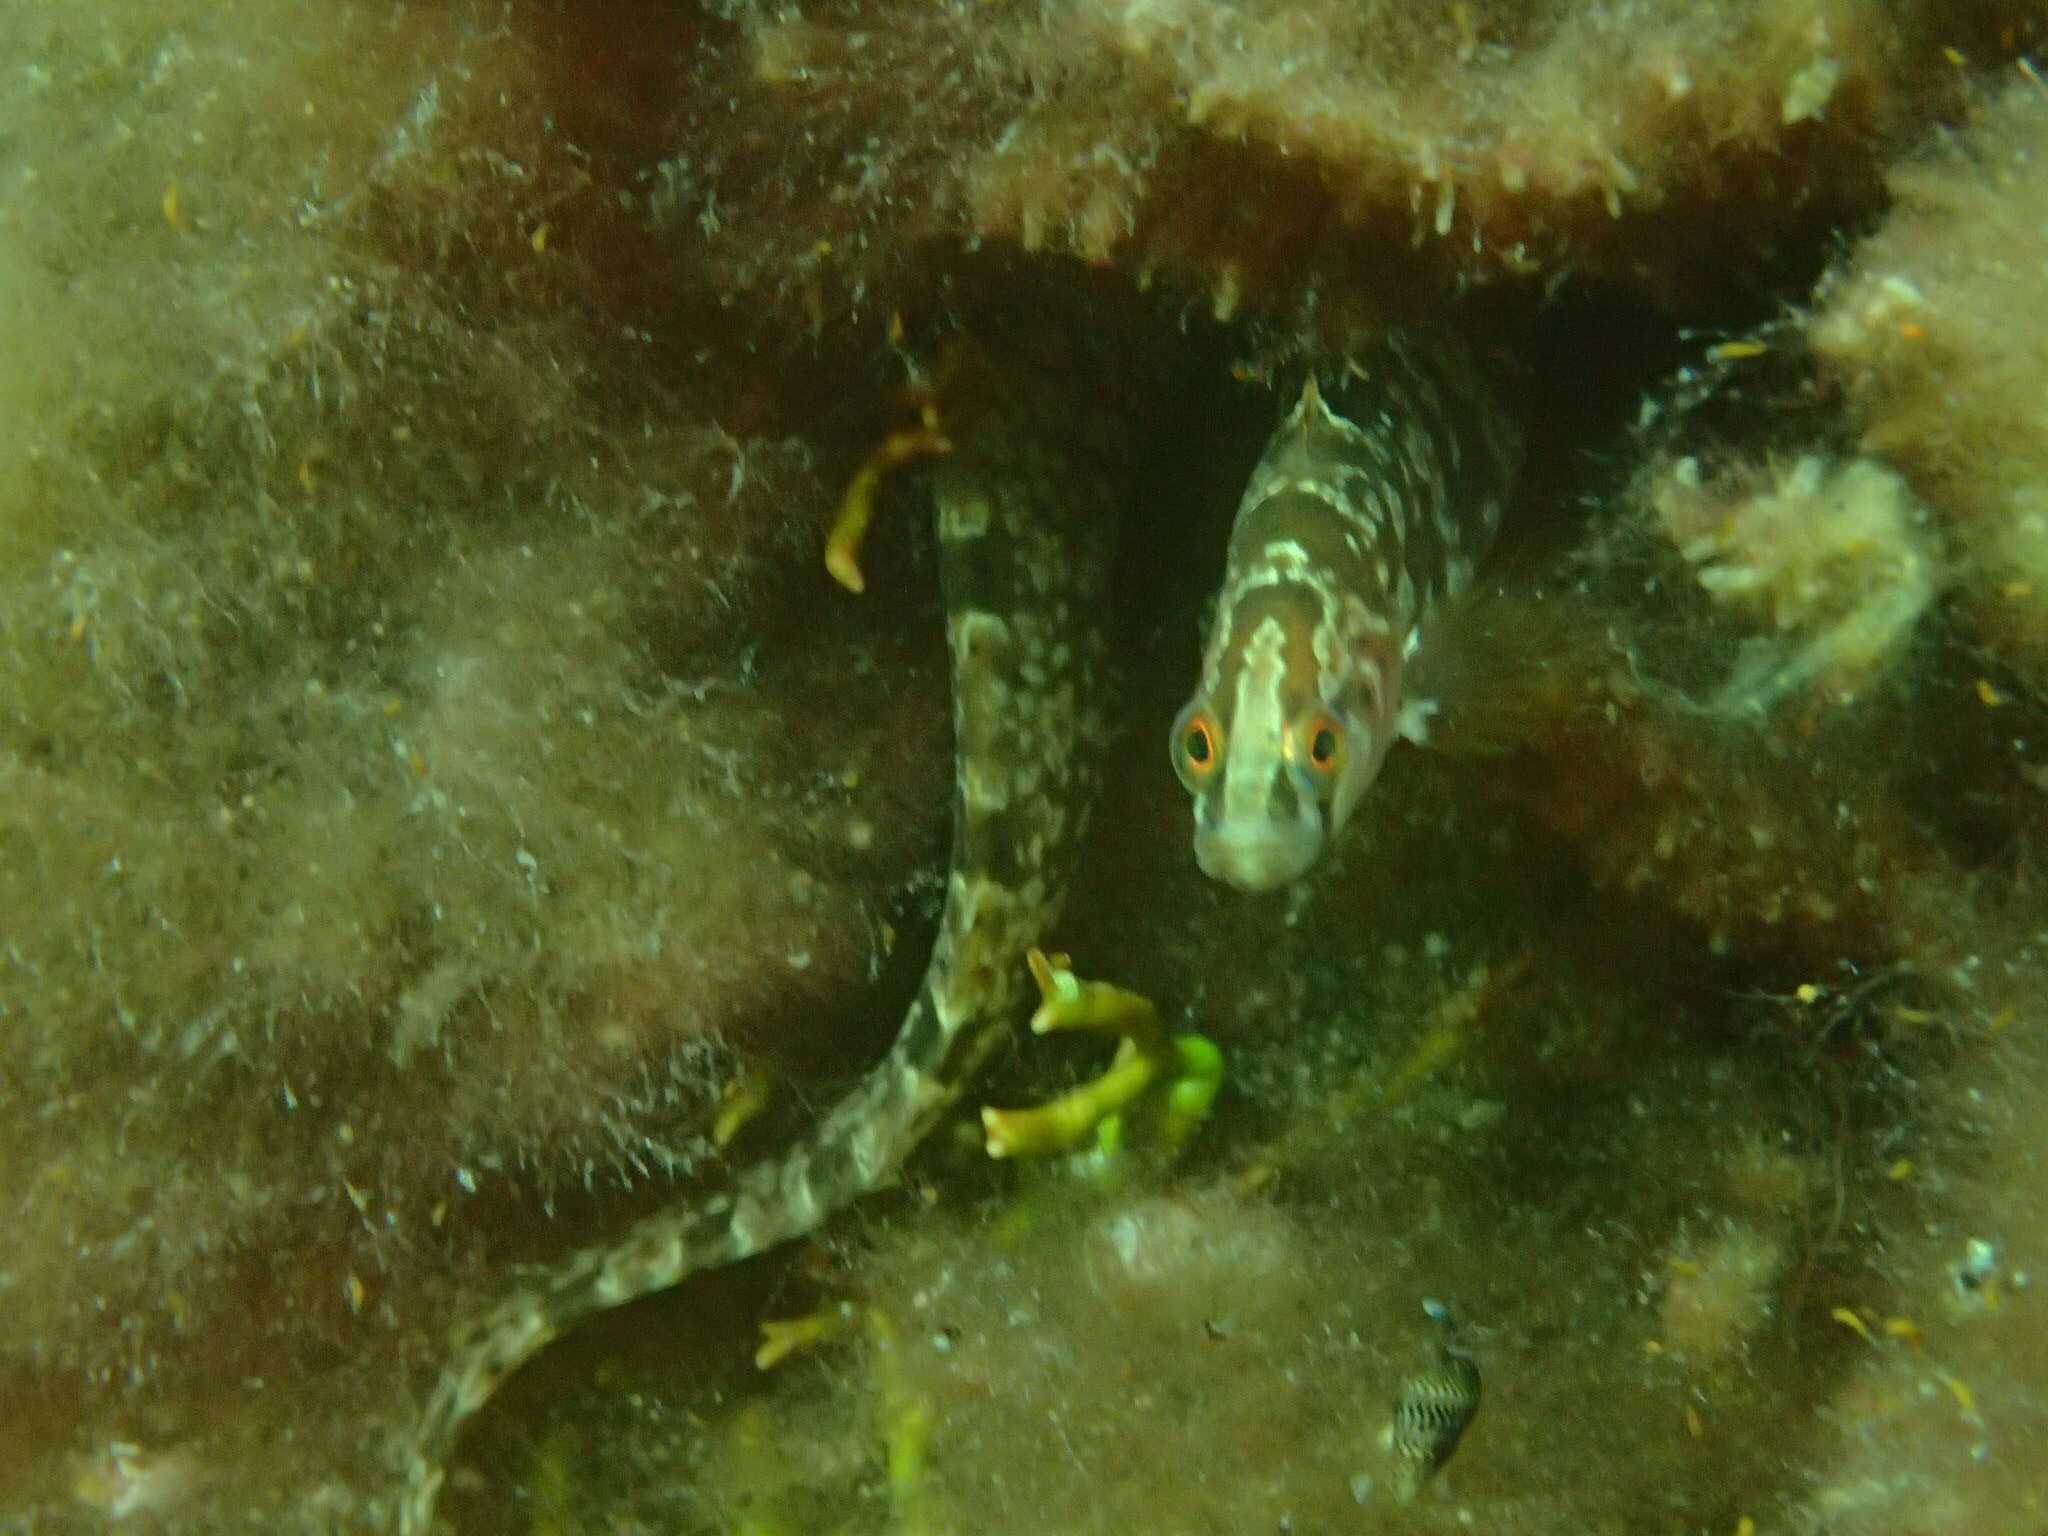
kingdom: Animalia
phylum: Chordata
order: Perciformes
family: Pholidae
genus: Pholis
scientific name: Pholis gunnellus
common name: Butterfish
